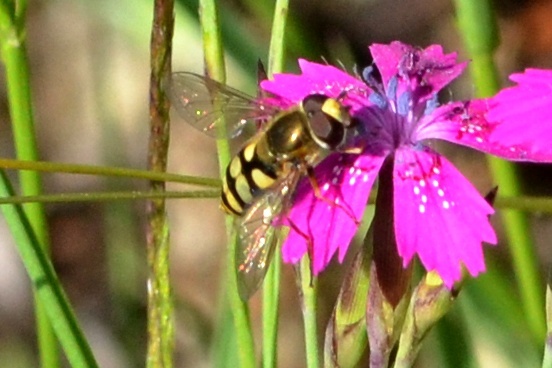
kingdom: Animalia
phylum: Arthropoda
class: Insecta
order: Diptera
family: Syrphidae
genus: Eupeodes
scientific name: Eupeodes corollae
